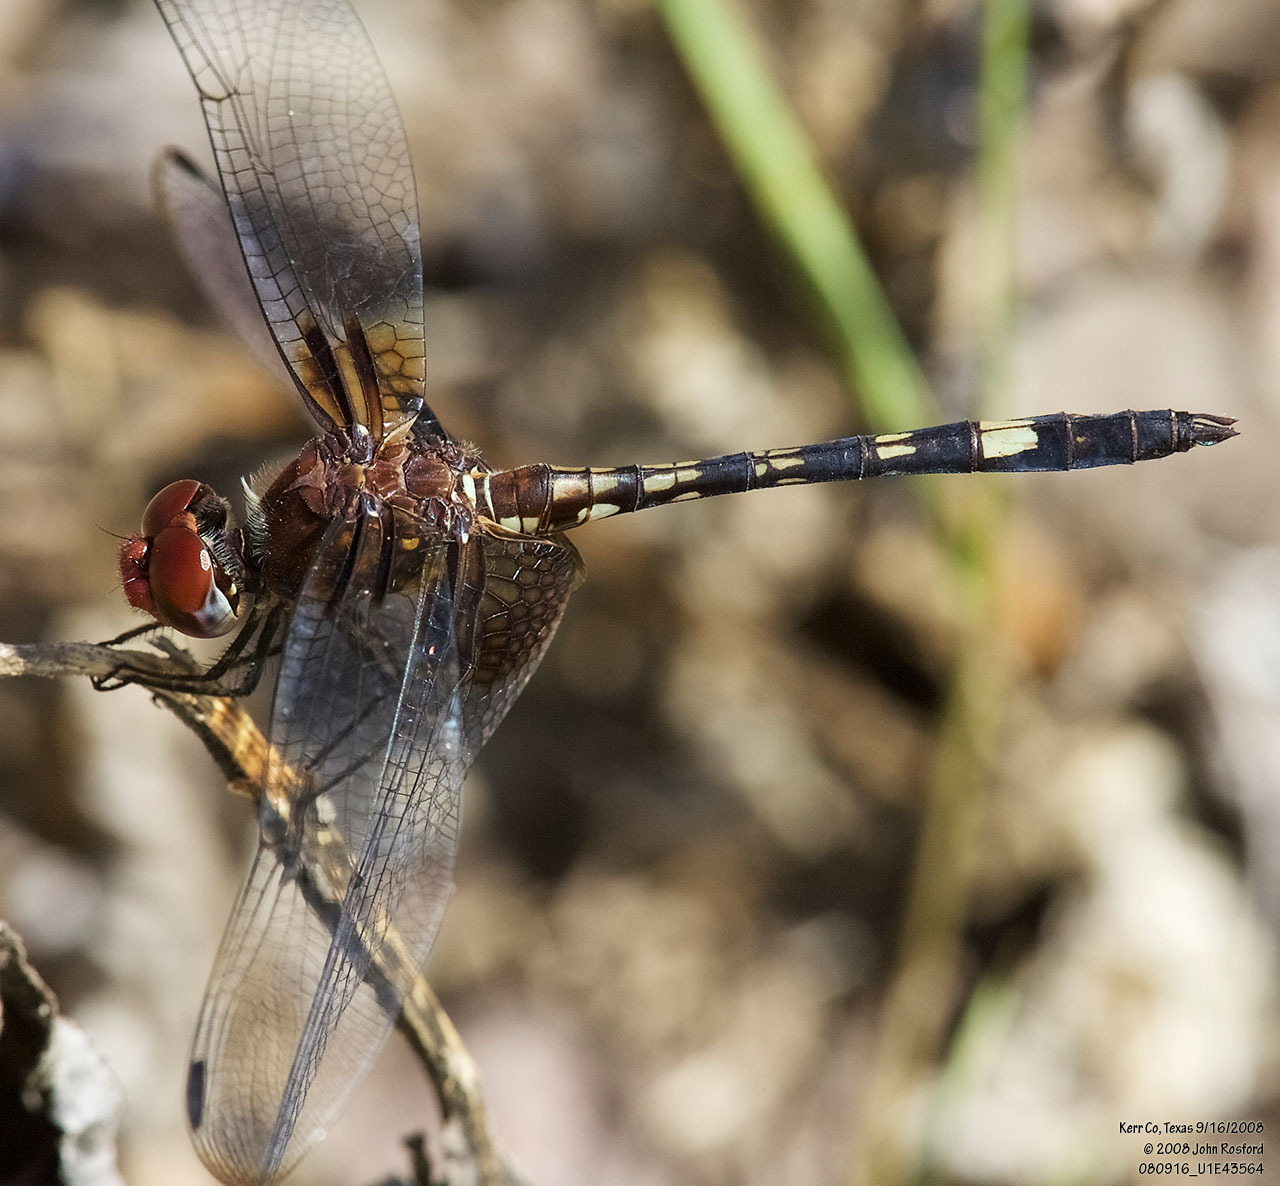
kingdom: Animalia
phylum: Arthropoda
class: Insecta
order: Odonata
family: Libellulidae
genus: Dythemis
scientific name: Dythemis fugax
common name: Checkered setwing
